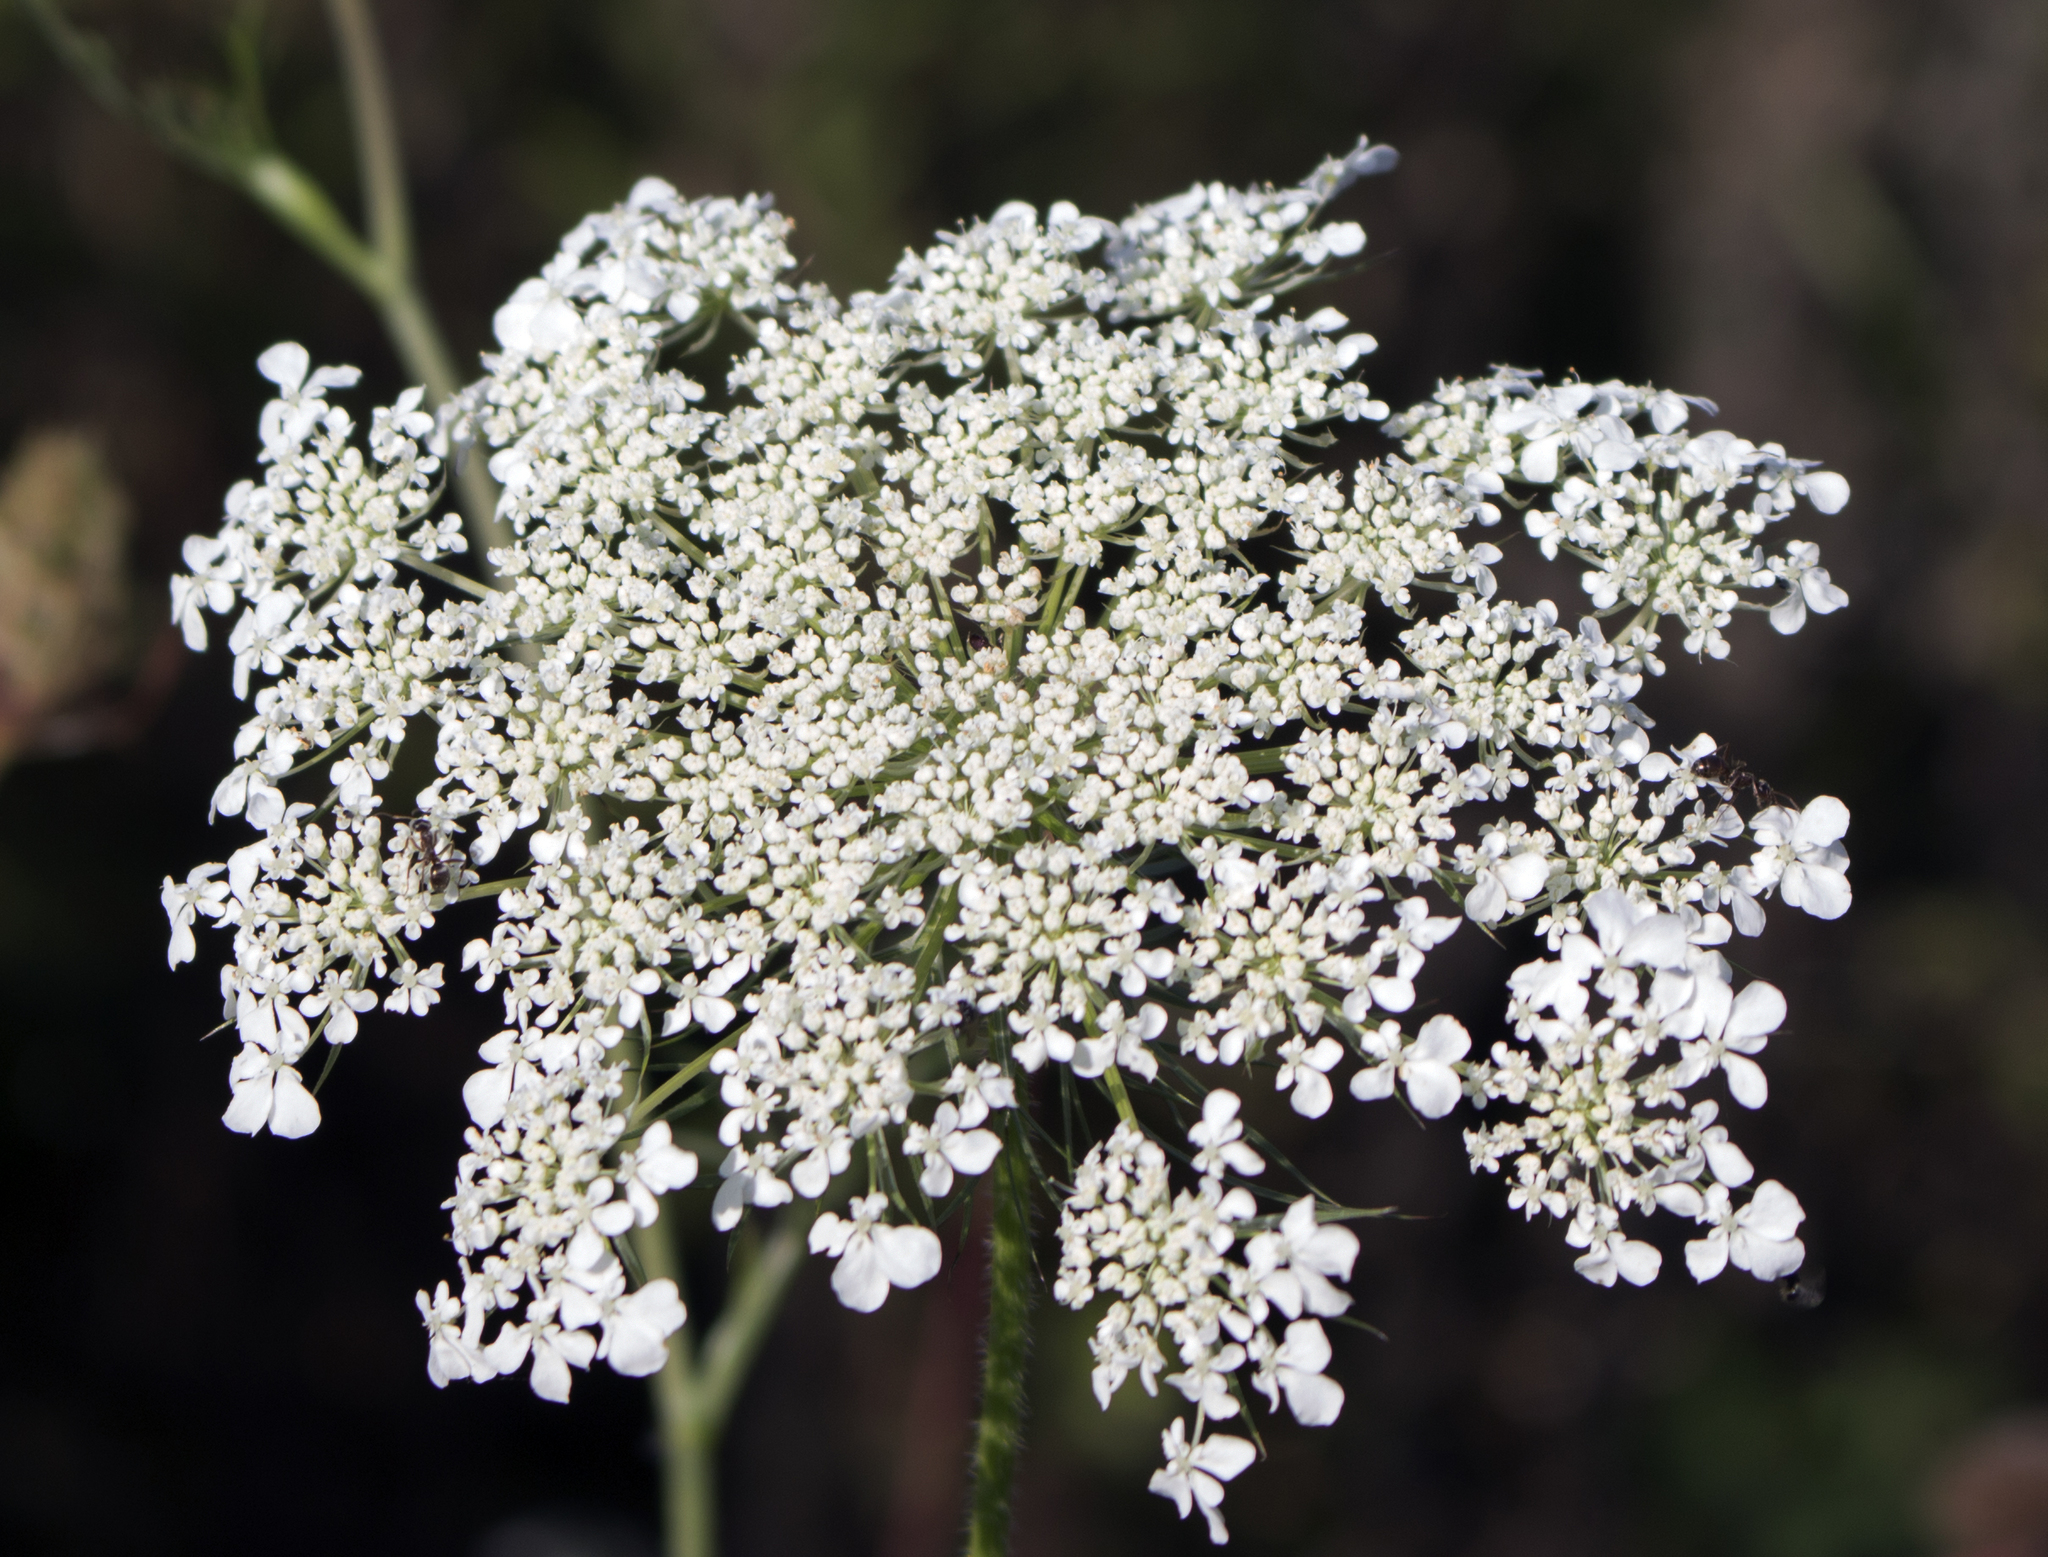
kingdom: Plantae
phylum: Tracheophyta
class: Magnoliopsida
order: Apiales
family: Apiaceae
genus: Daucus
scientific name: Daucus carota
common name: Wild carrot
